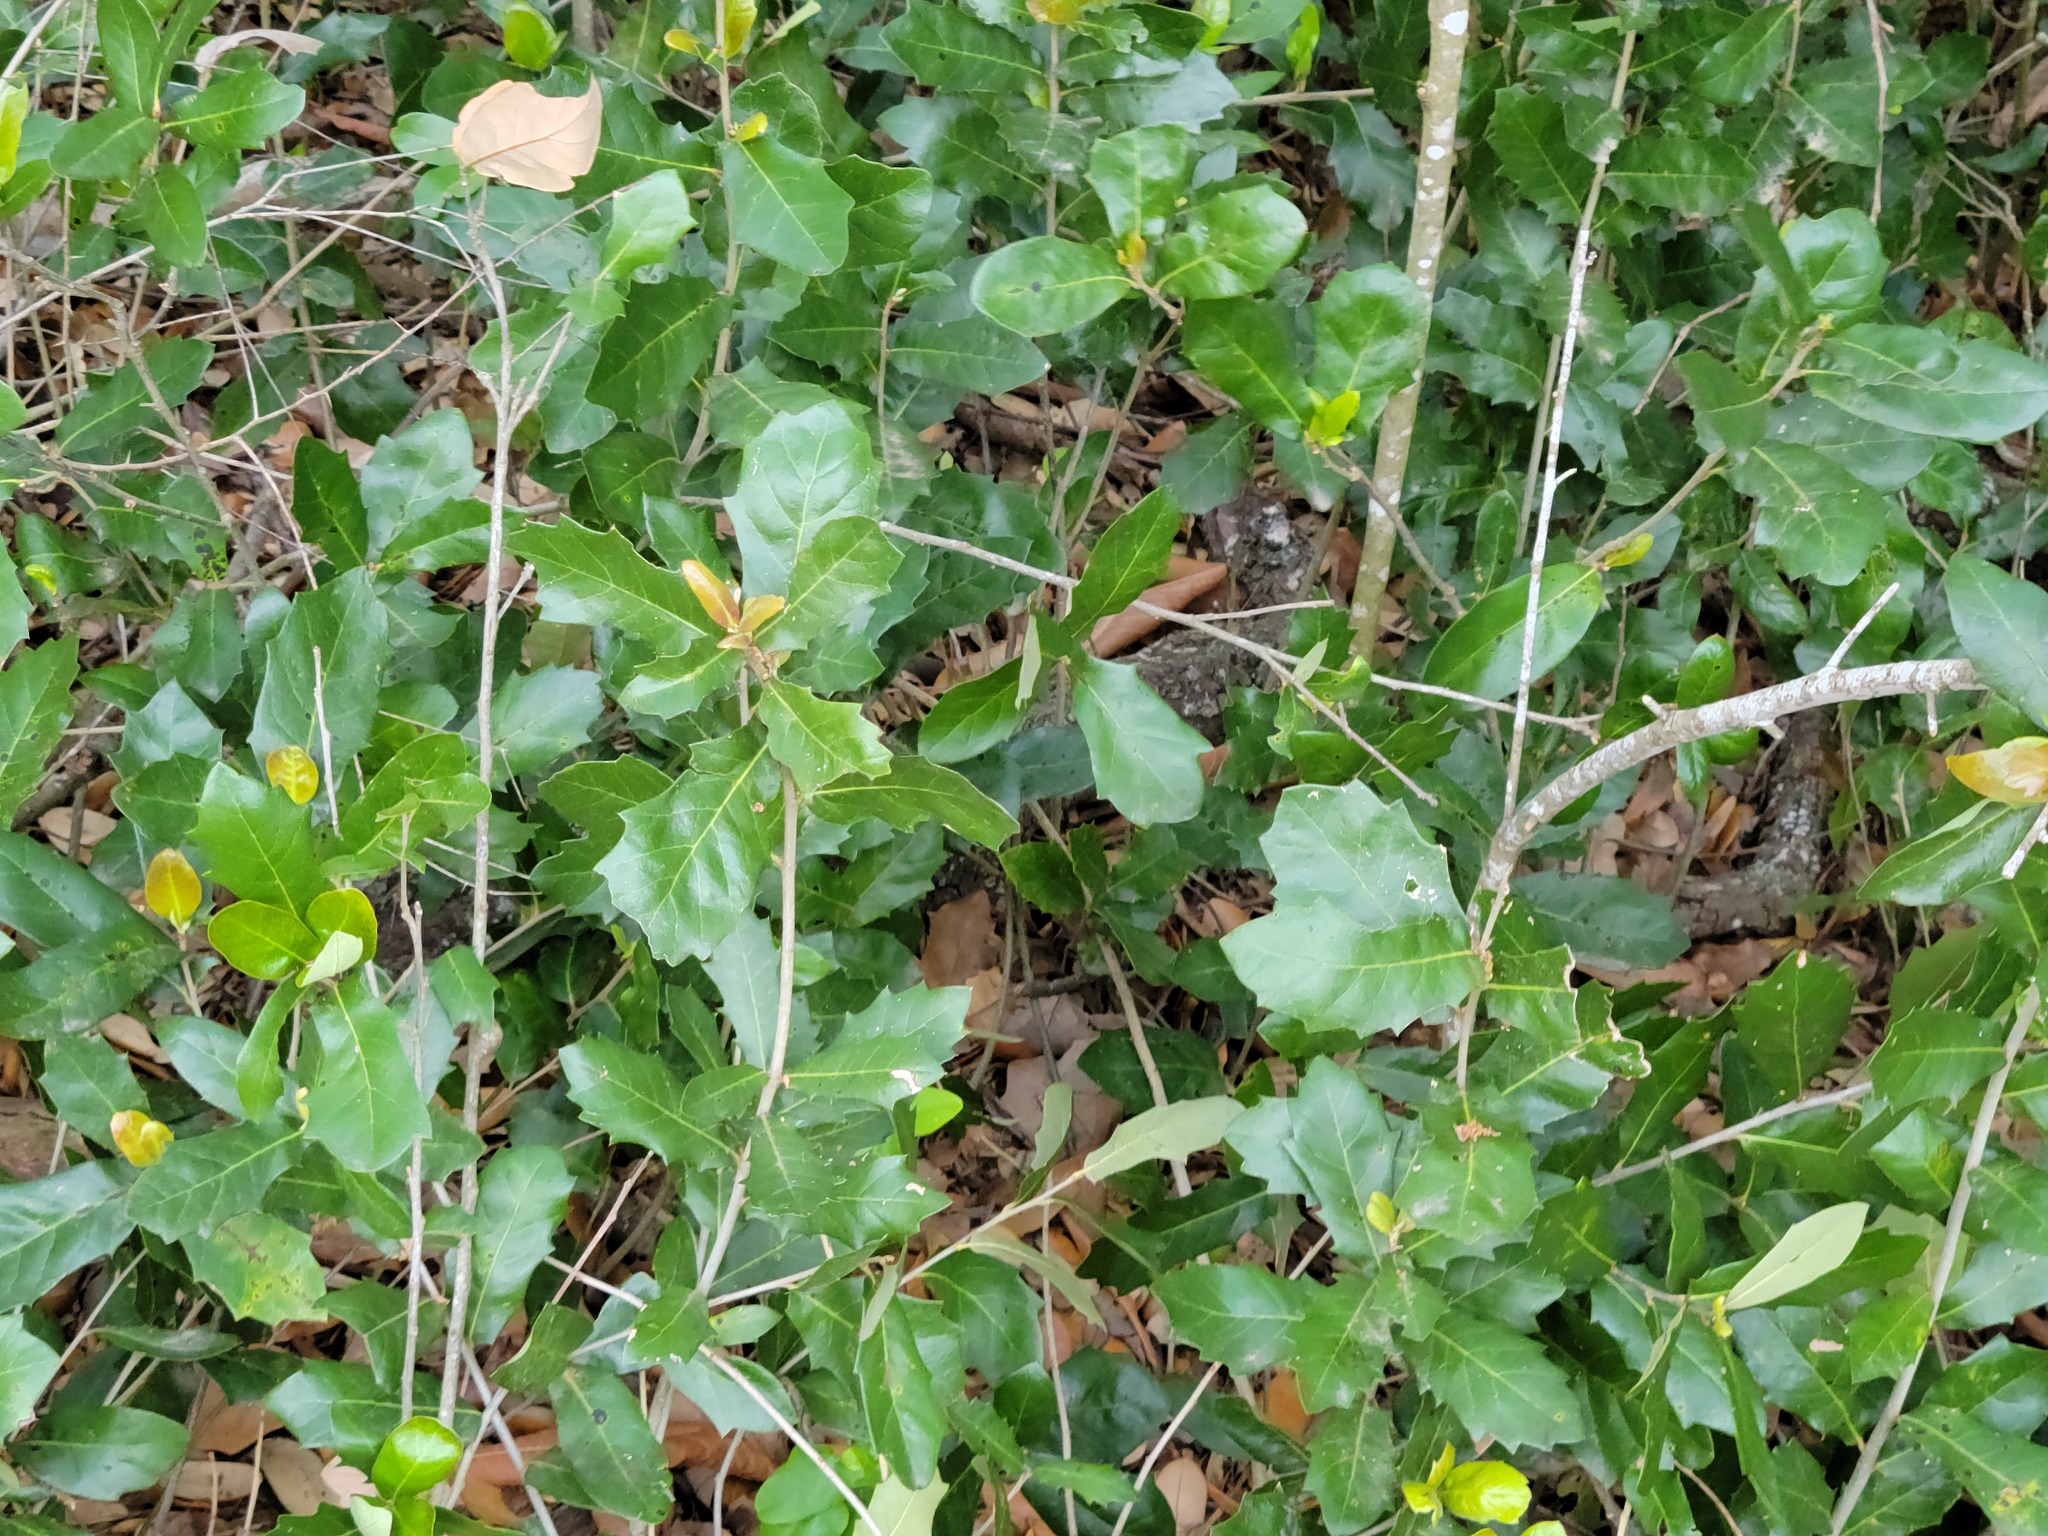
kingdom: Plantae
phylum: Tracheophyta
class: Magnoliopsida
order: Fagales
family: Fagaceae
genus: Quercus
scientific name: Quercus fusiformis
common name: Texas live oak
